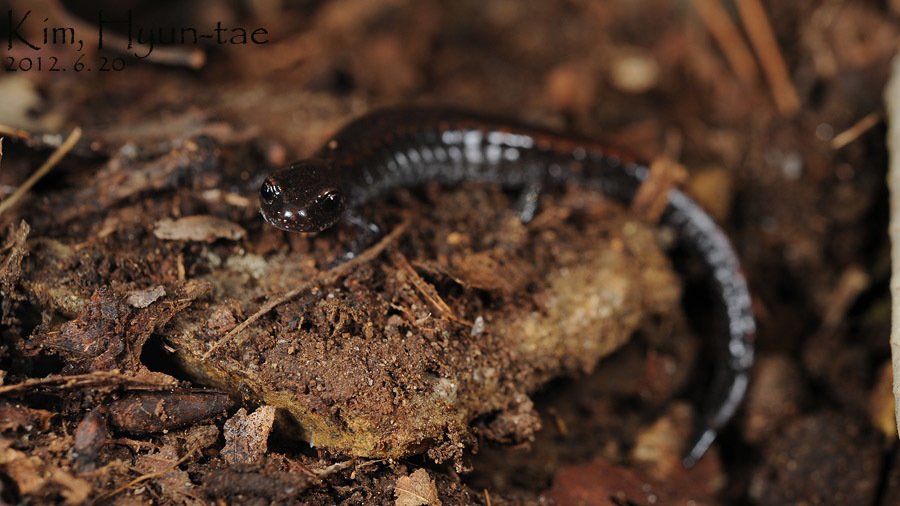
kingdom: Animalia
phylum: Chordata
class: Amphibia
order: Caudata
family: Plethodontidae
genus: Karsenia
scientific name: Karsenia koreana
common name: Korean crevice salamander
